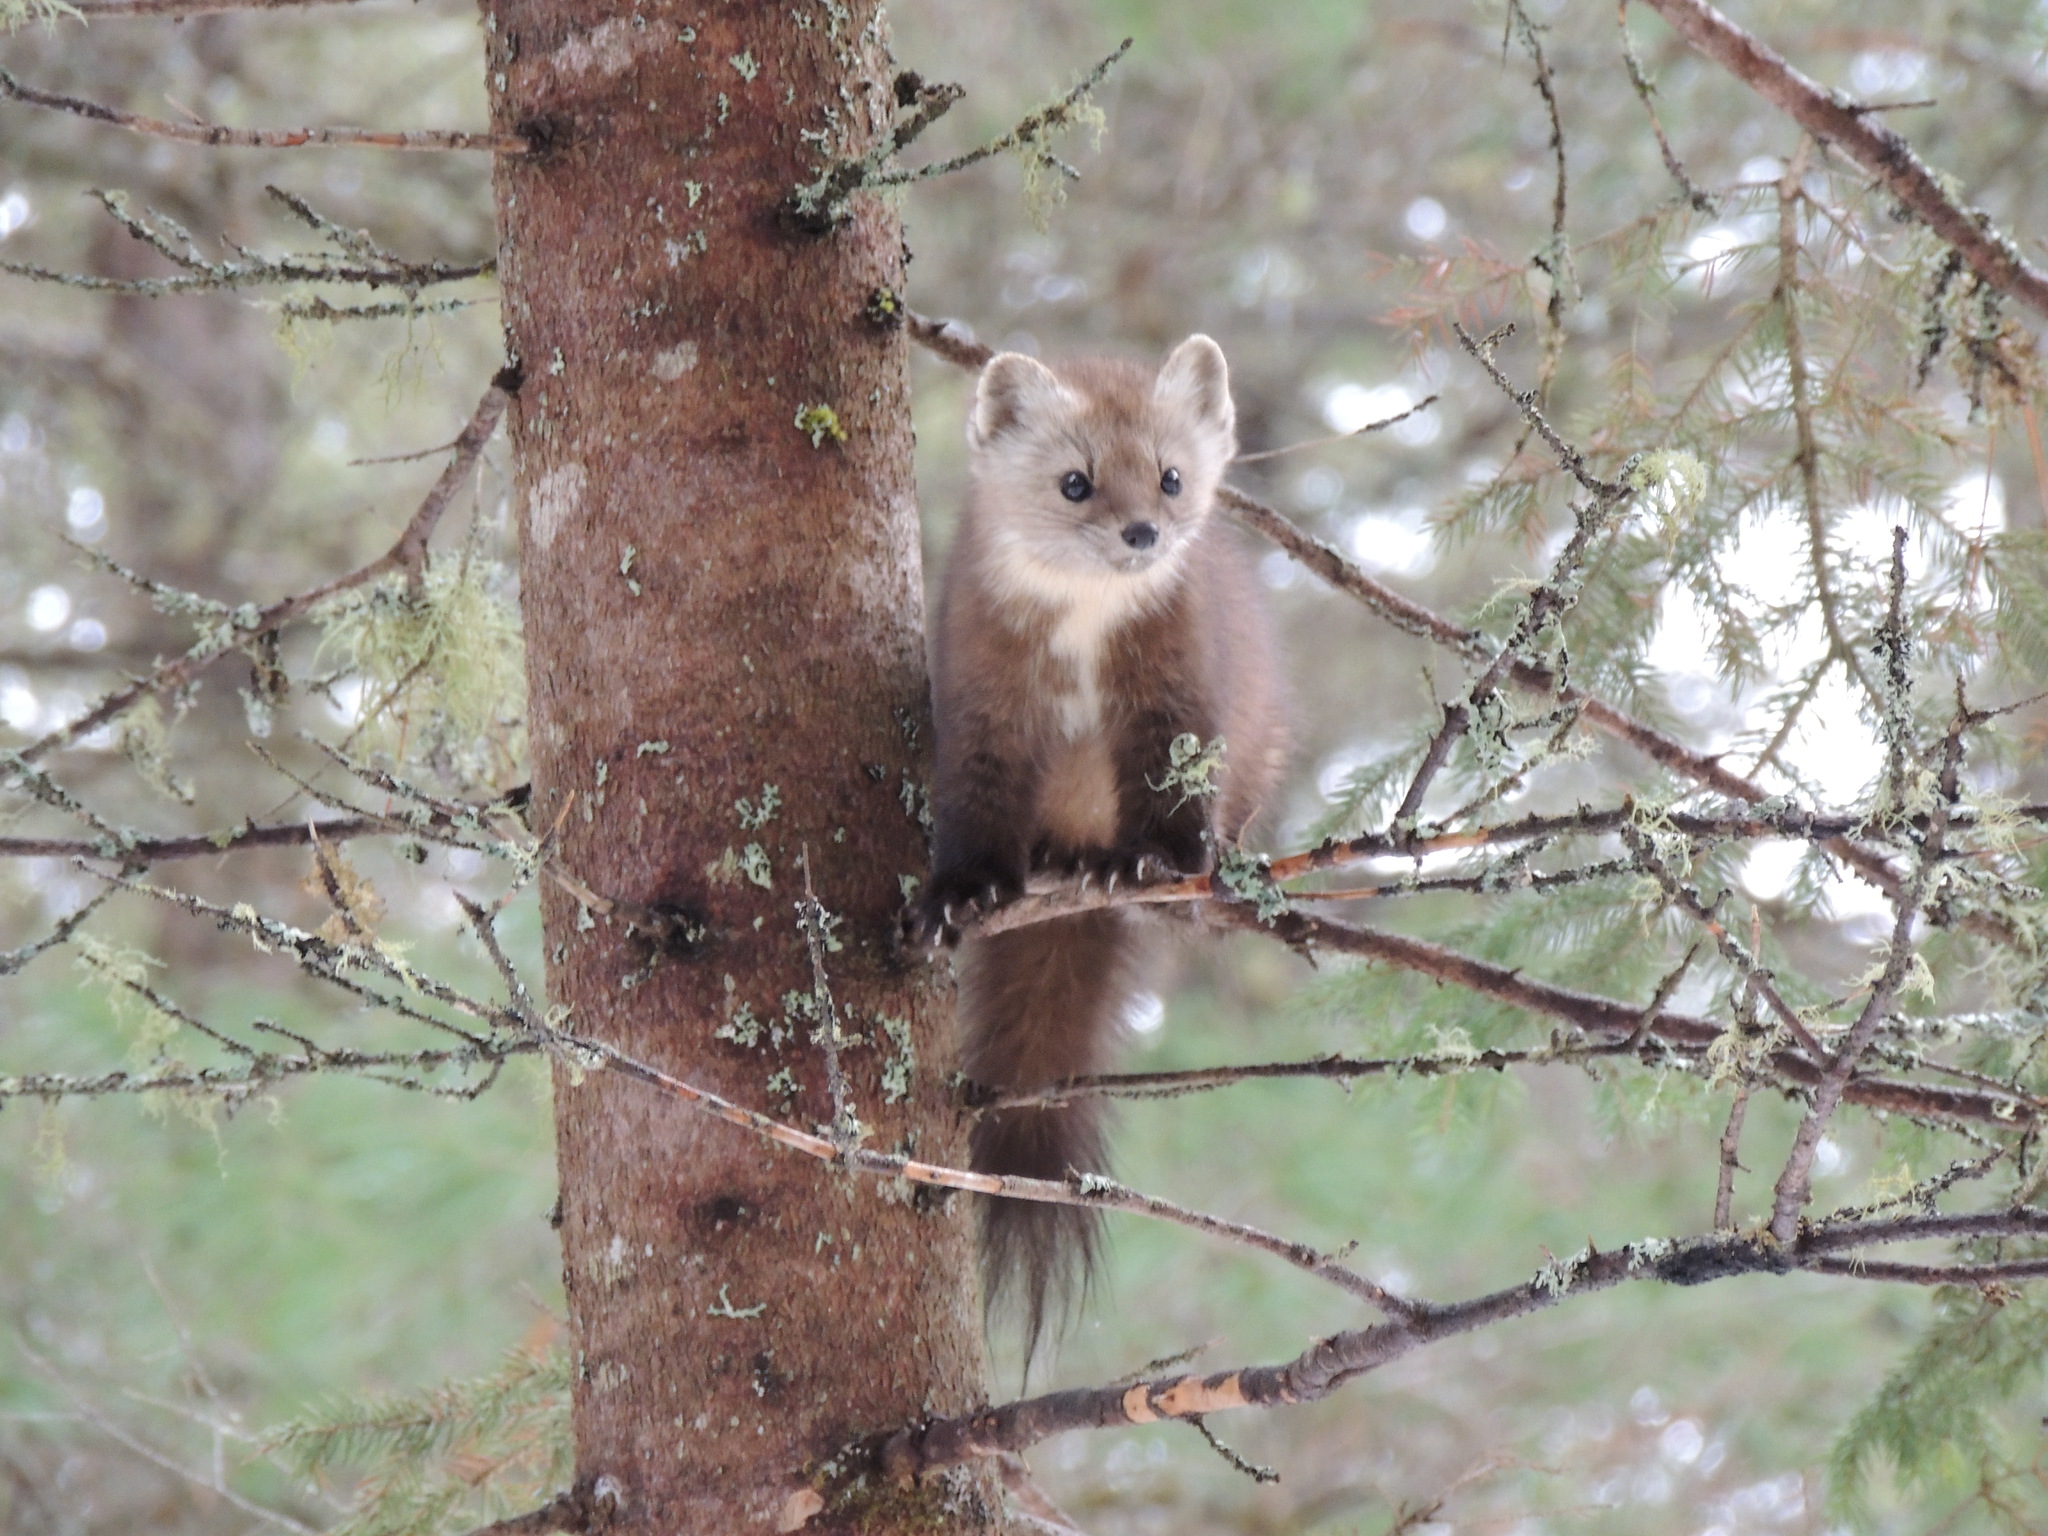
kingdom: Animalia
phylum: Chordata
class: Mammalia
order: Carnivora
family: Mustelidae
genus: Martes
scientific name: Martes americana
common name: American marten
